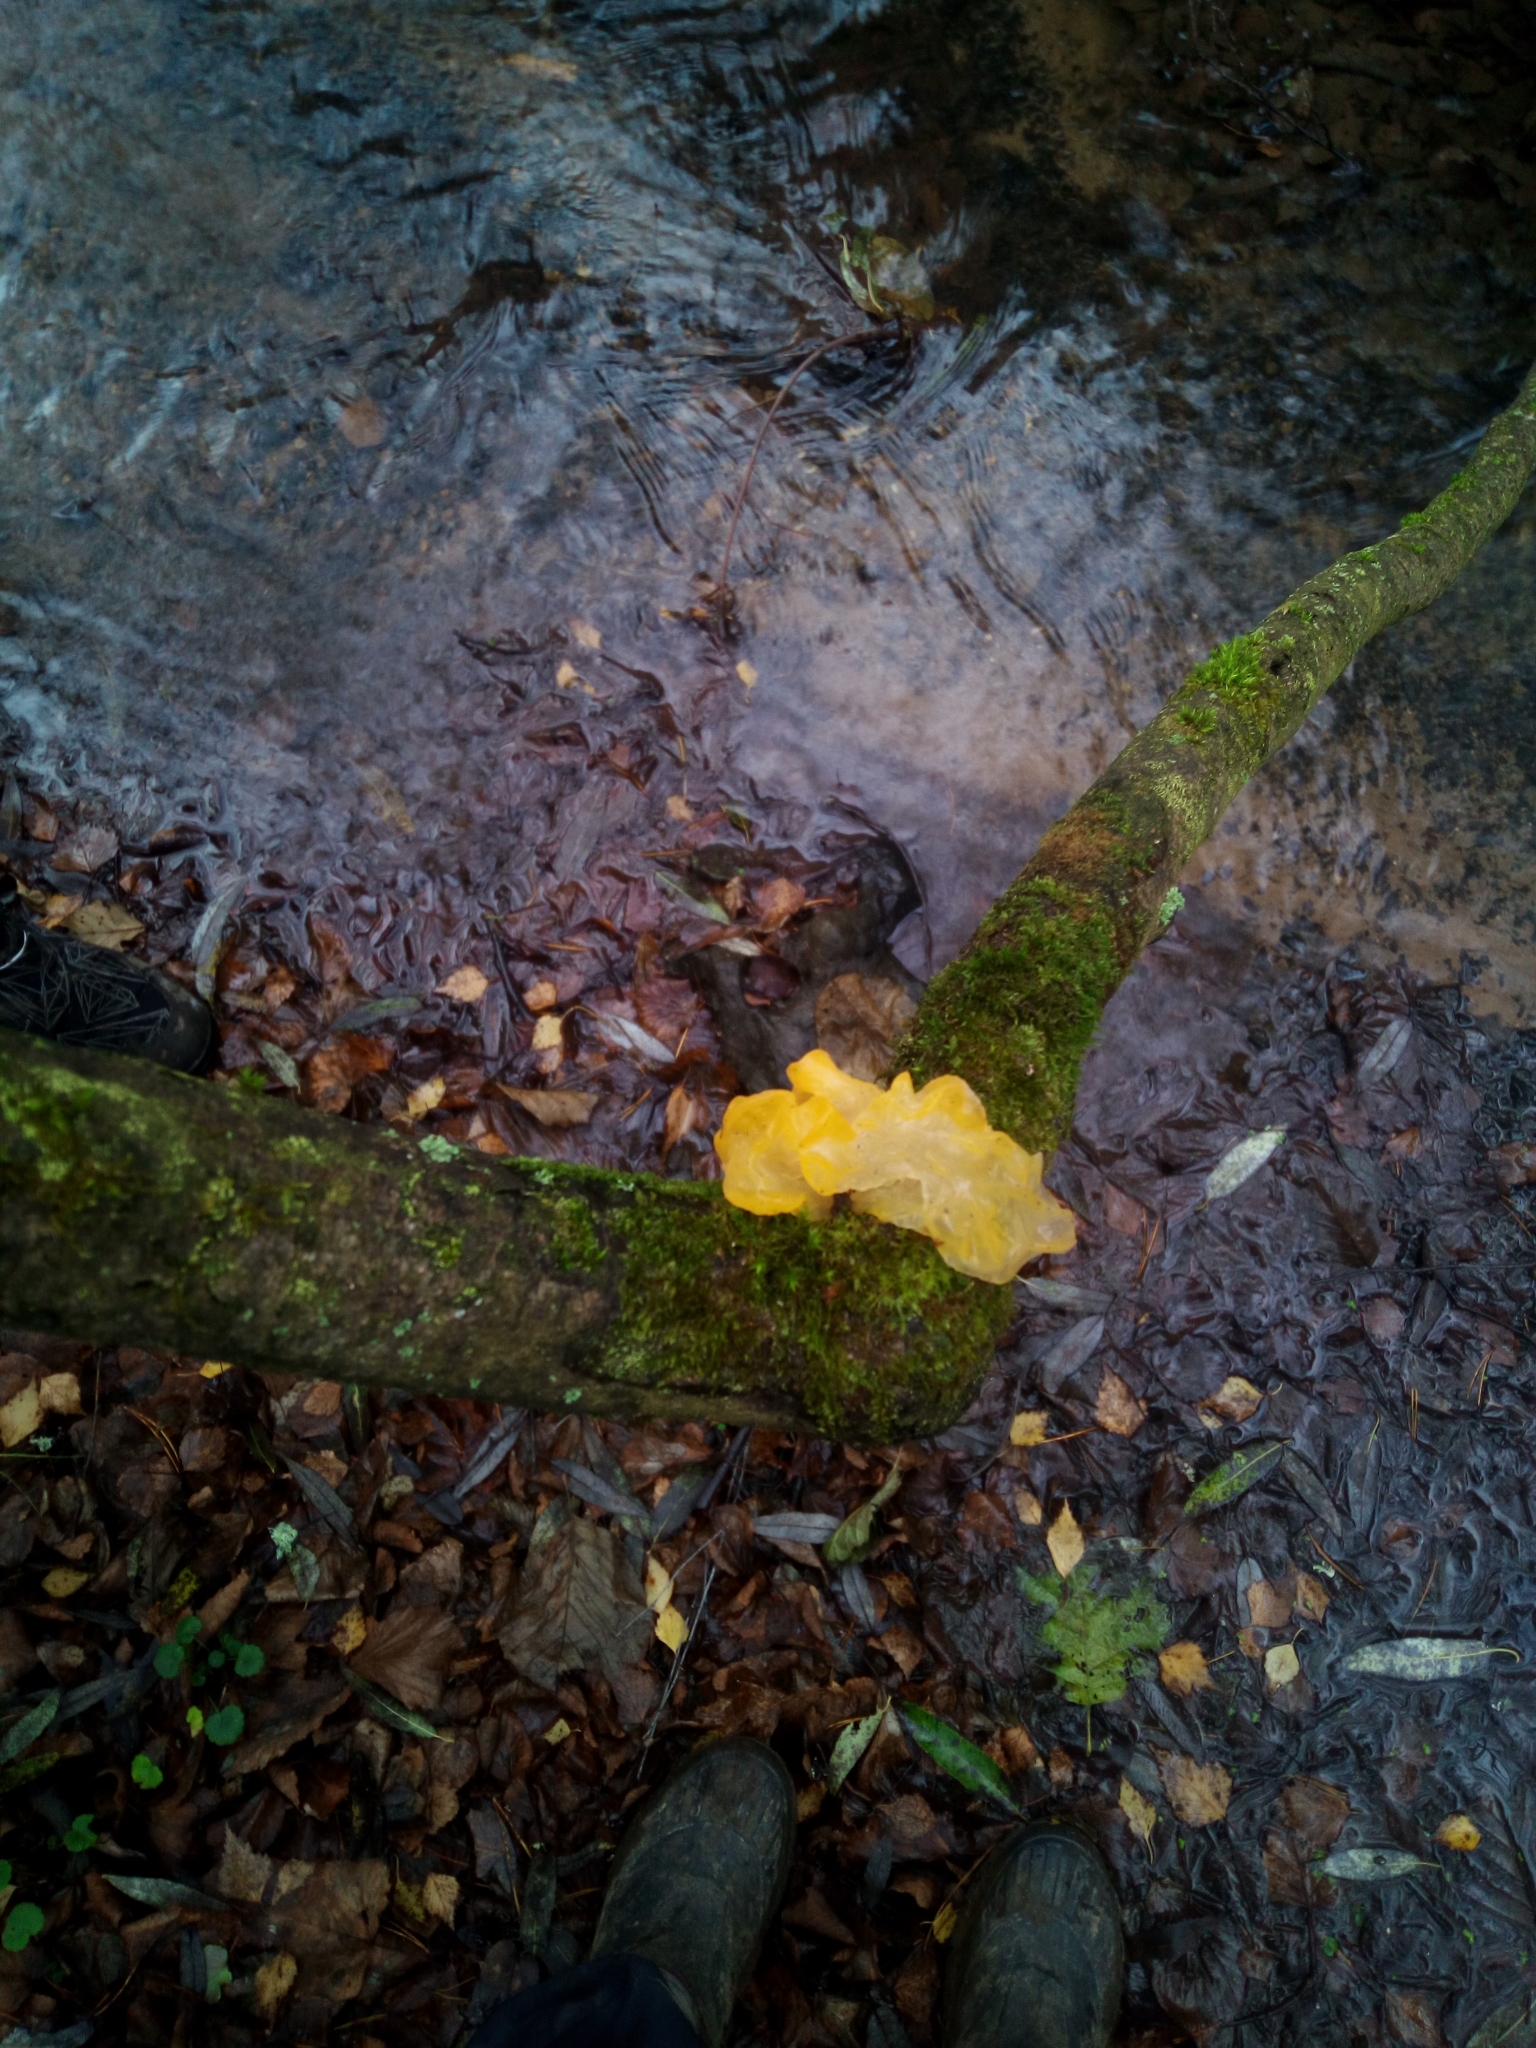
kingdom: Fungi
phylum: Basidiomycota
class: Tremellomycetes
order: Tremellales
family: Tremellaceae
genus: Tremella
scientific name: Tremella mesenterica
